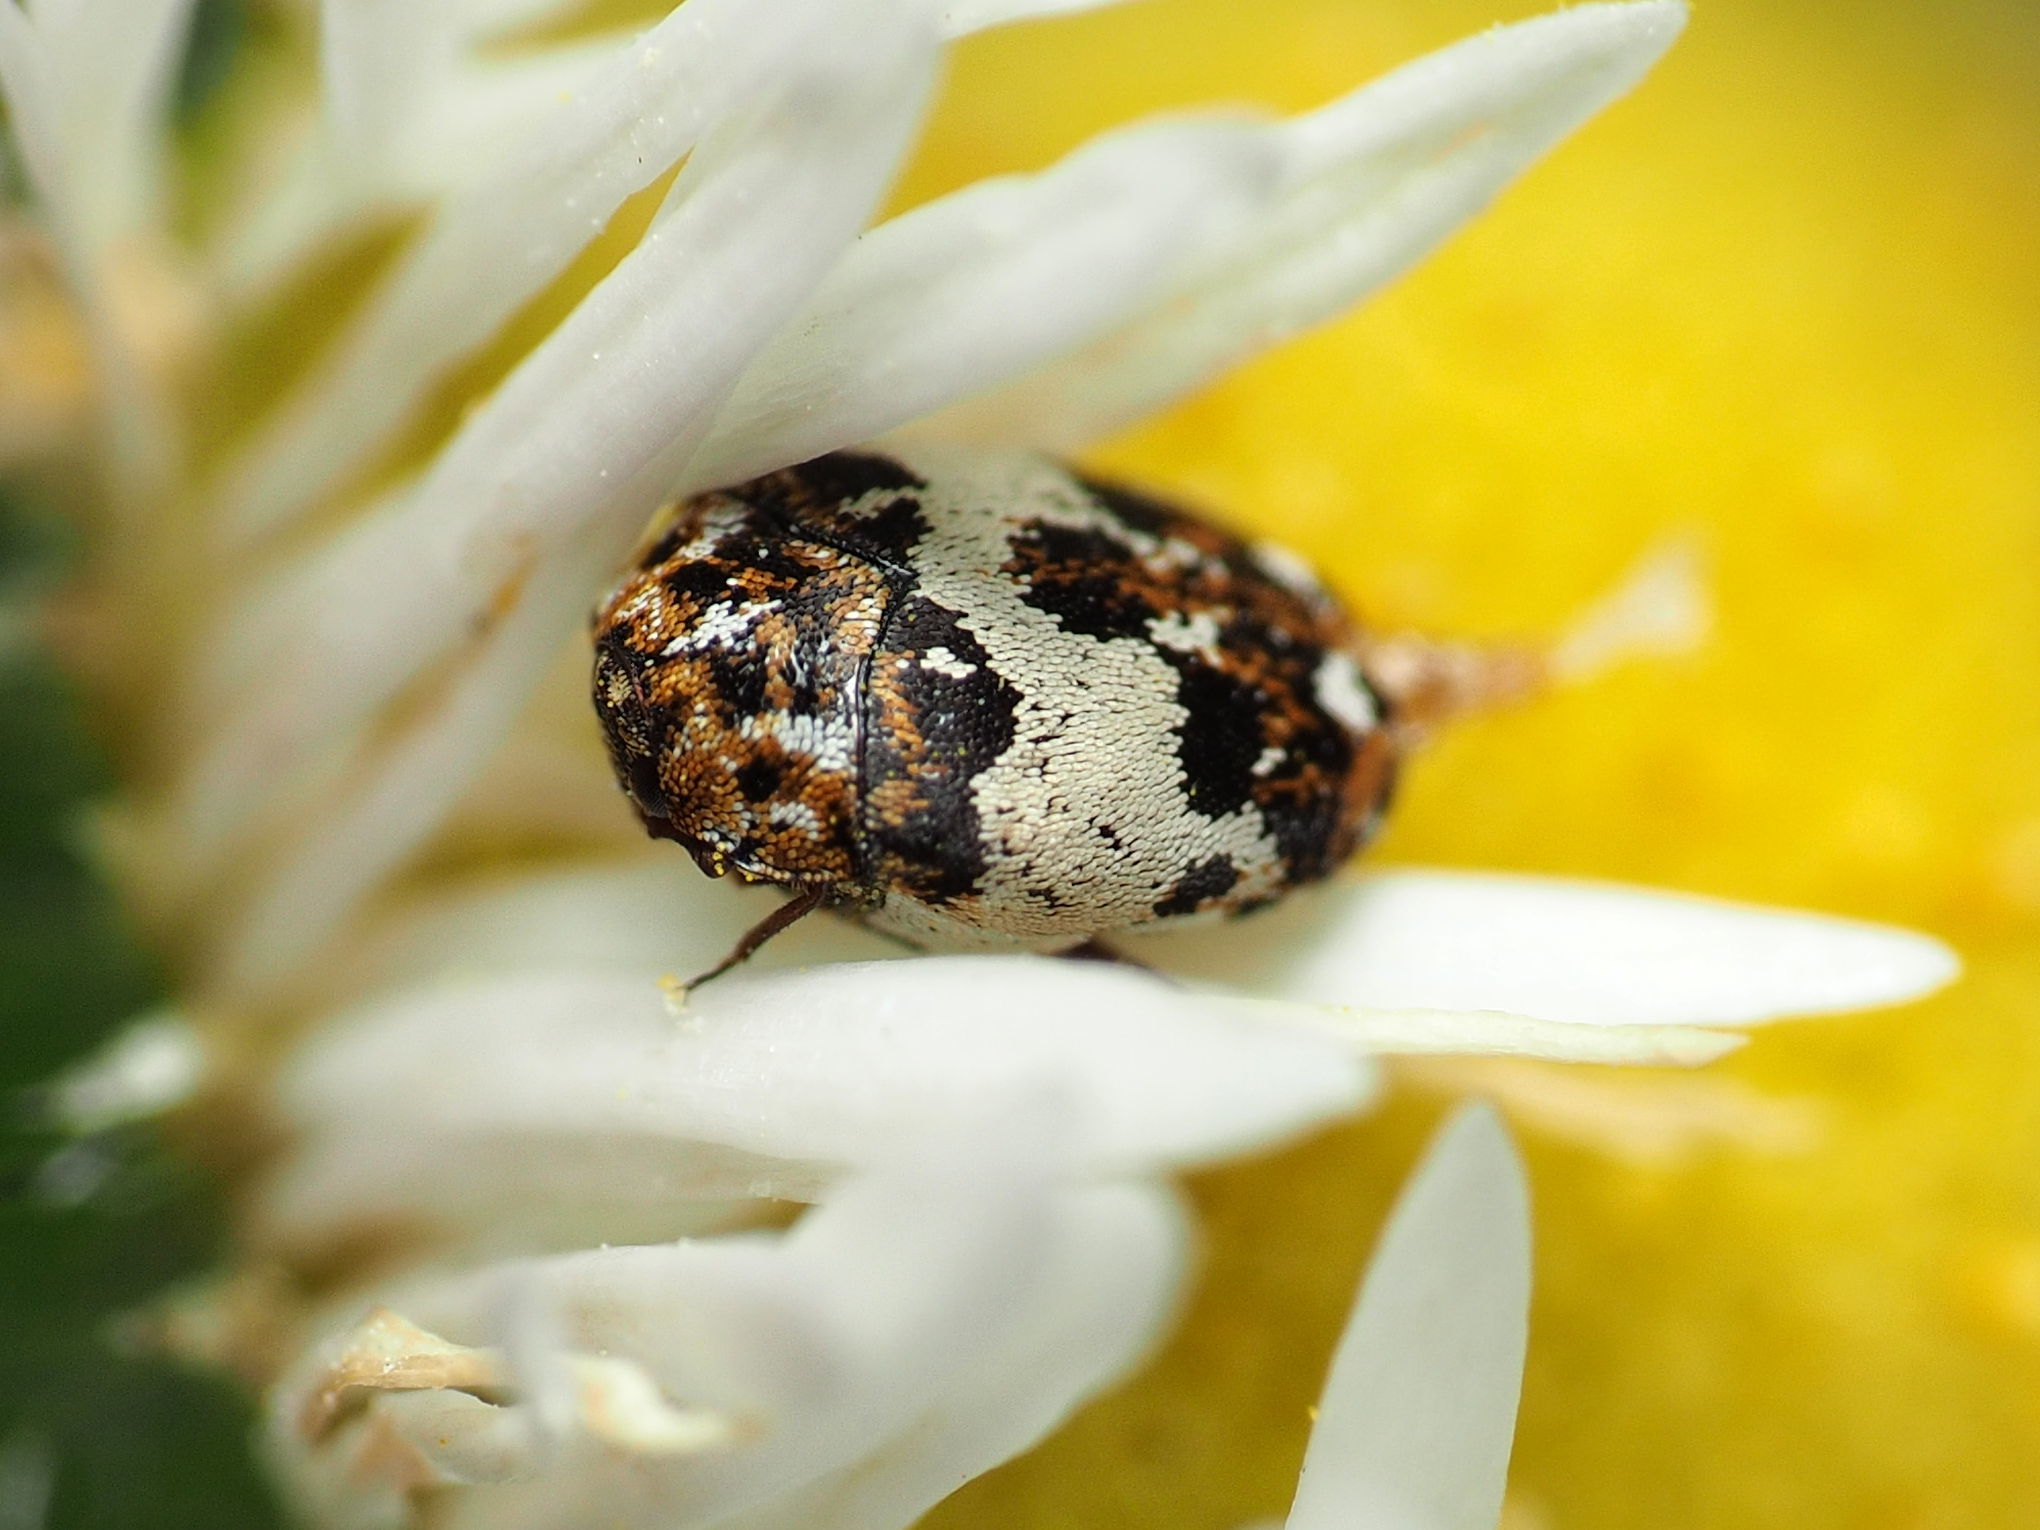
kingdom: Animalia
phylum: Arthropoda
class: Insecta
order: Coleoptera
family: Dermestidae
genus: Anthrenus
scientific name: Anthrenus isabellinus
